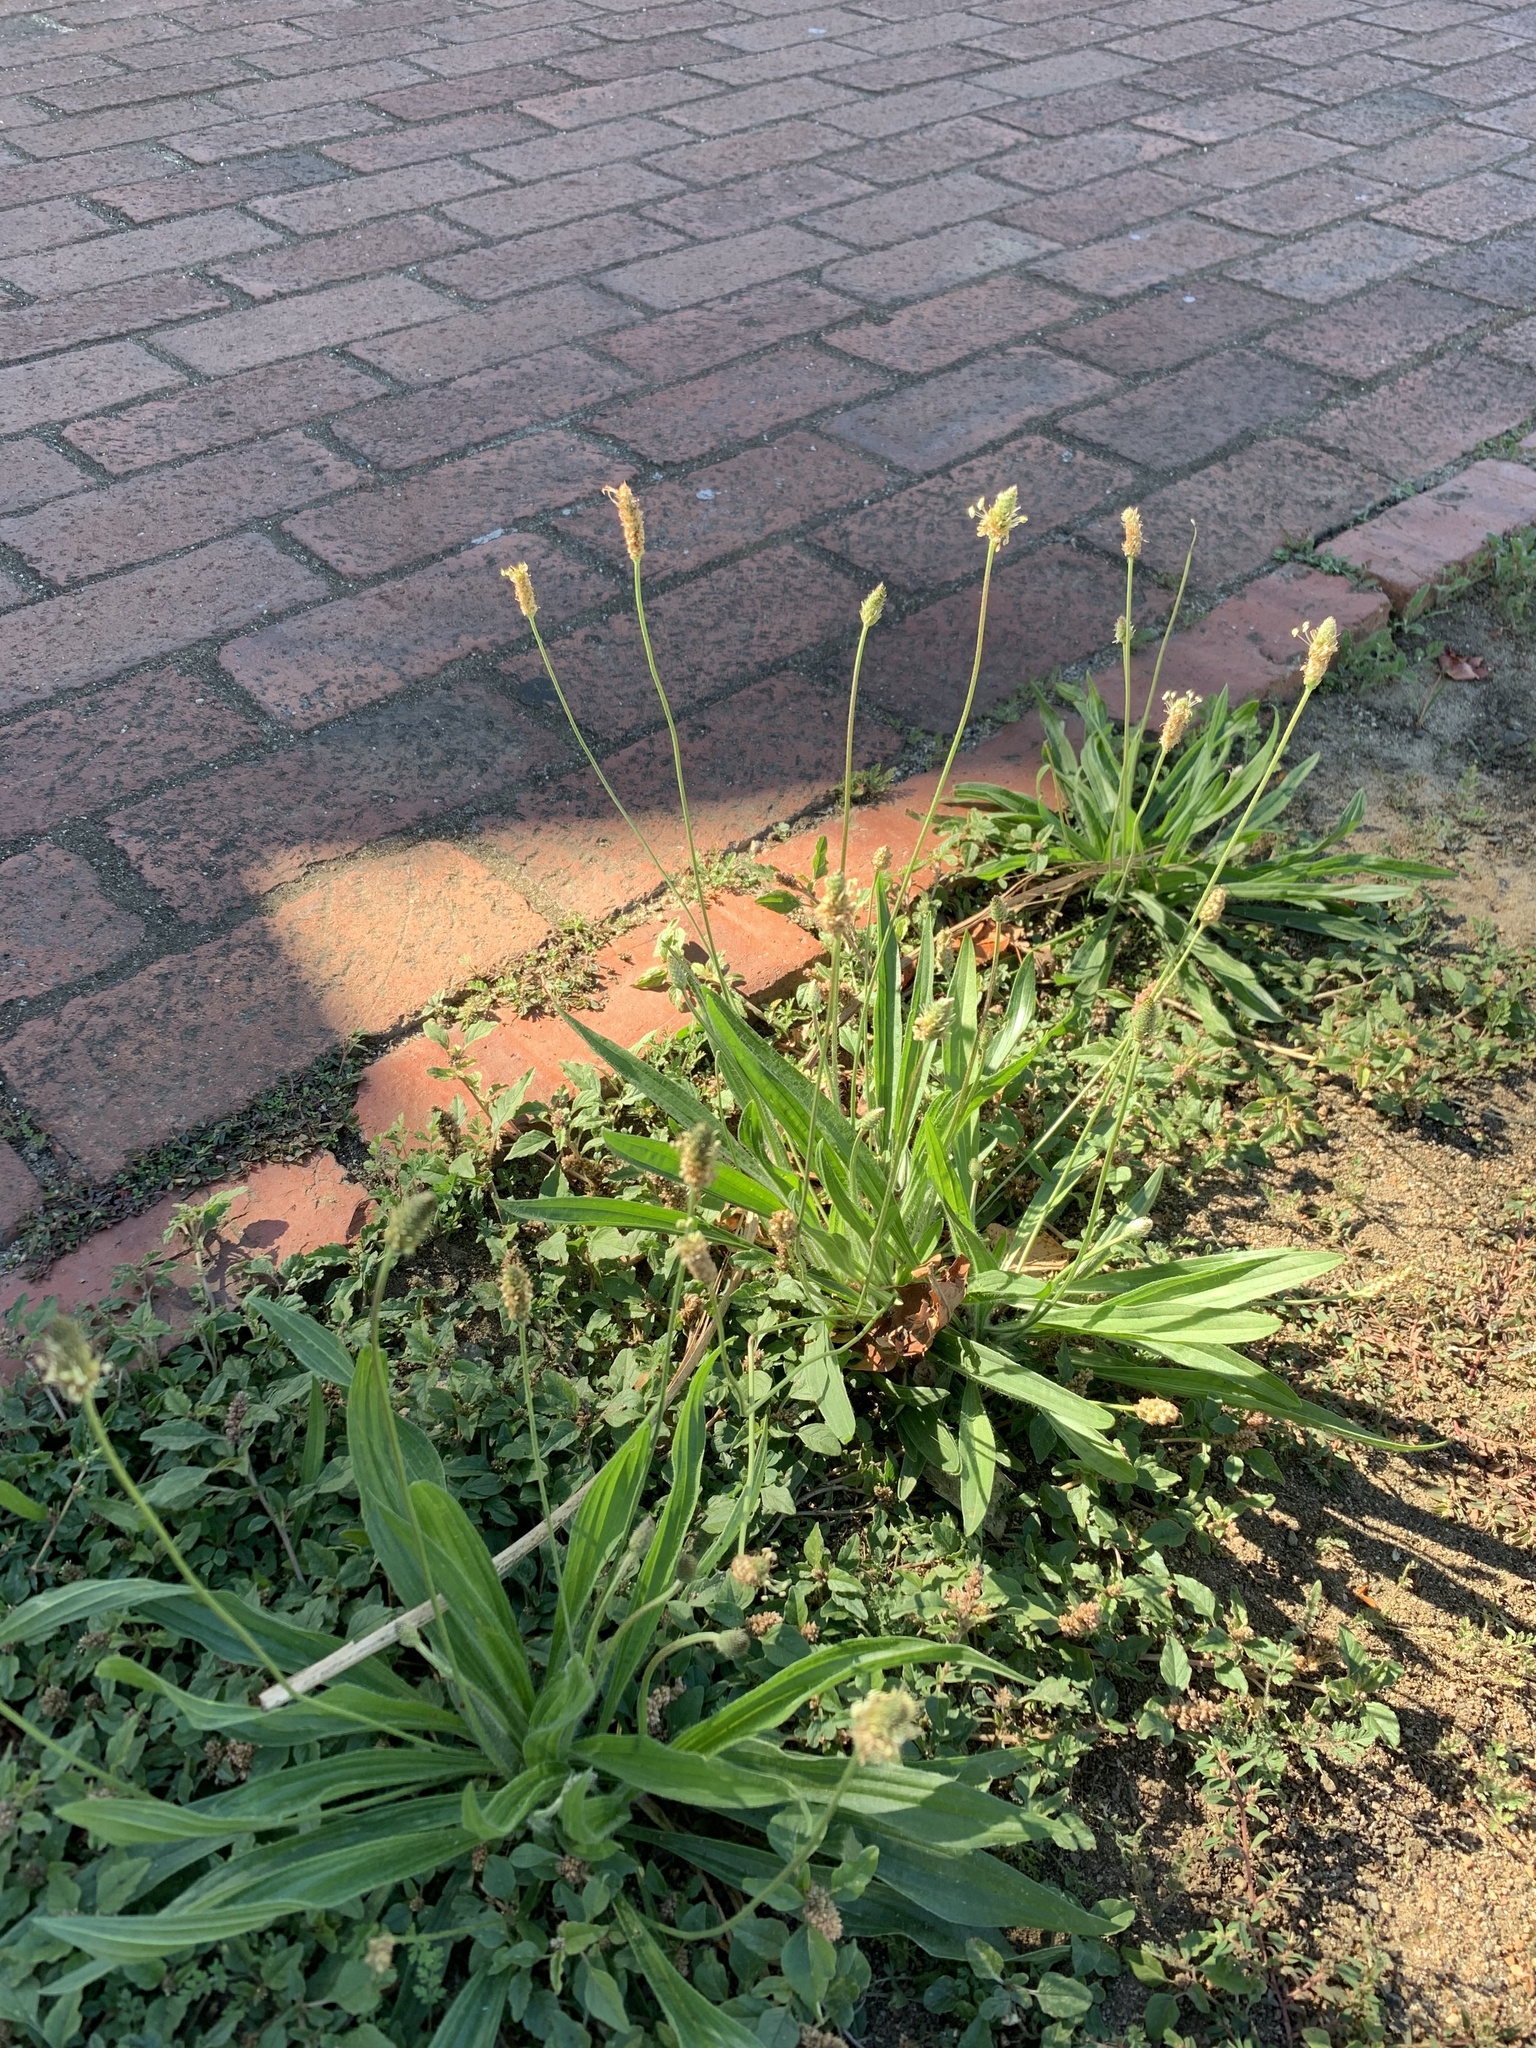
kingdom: Plantae
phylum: Tracheophyta
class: Magnoliopsida
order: Lamiales
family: Plantaginaceae
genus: Plantago
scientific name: Plantago lanceolata
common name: Ribwort plantain
